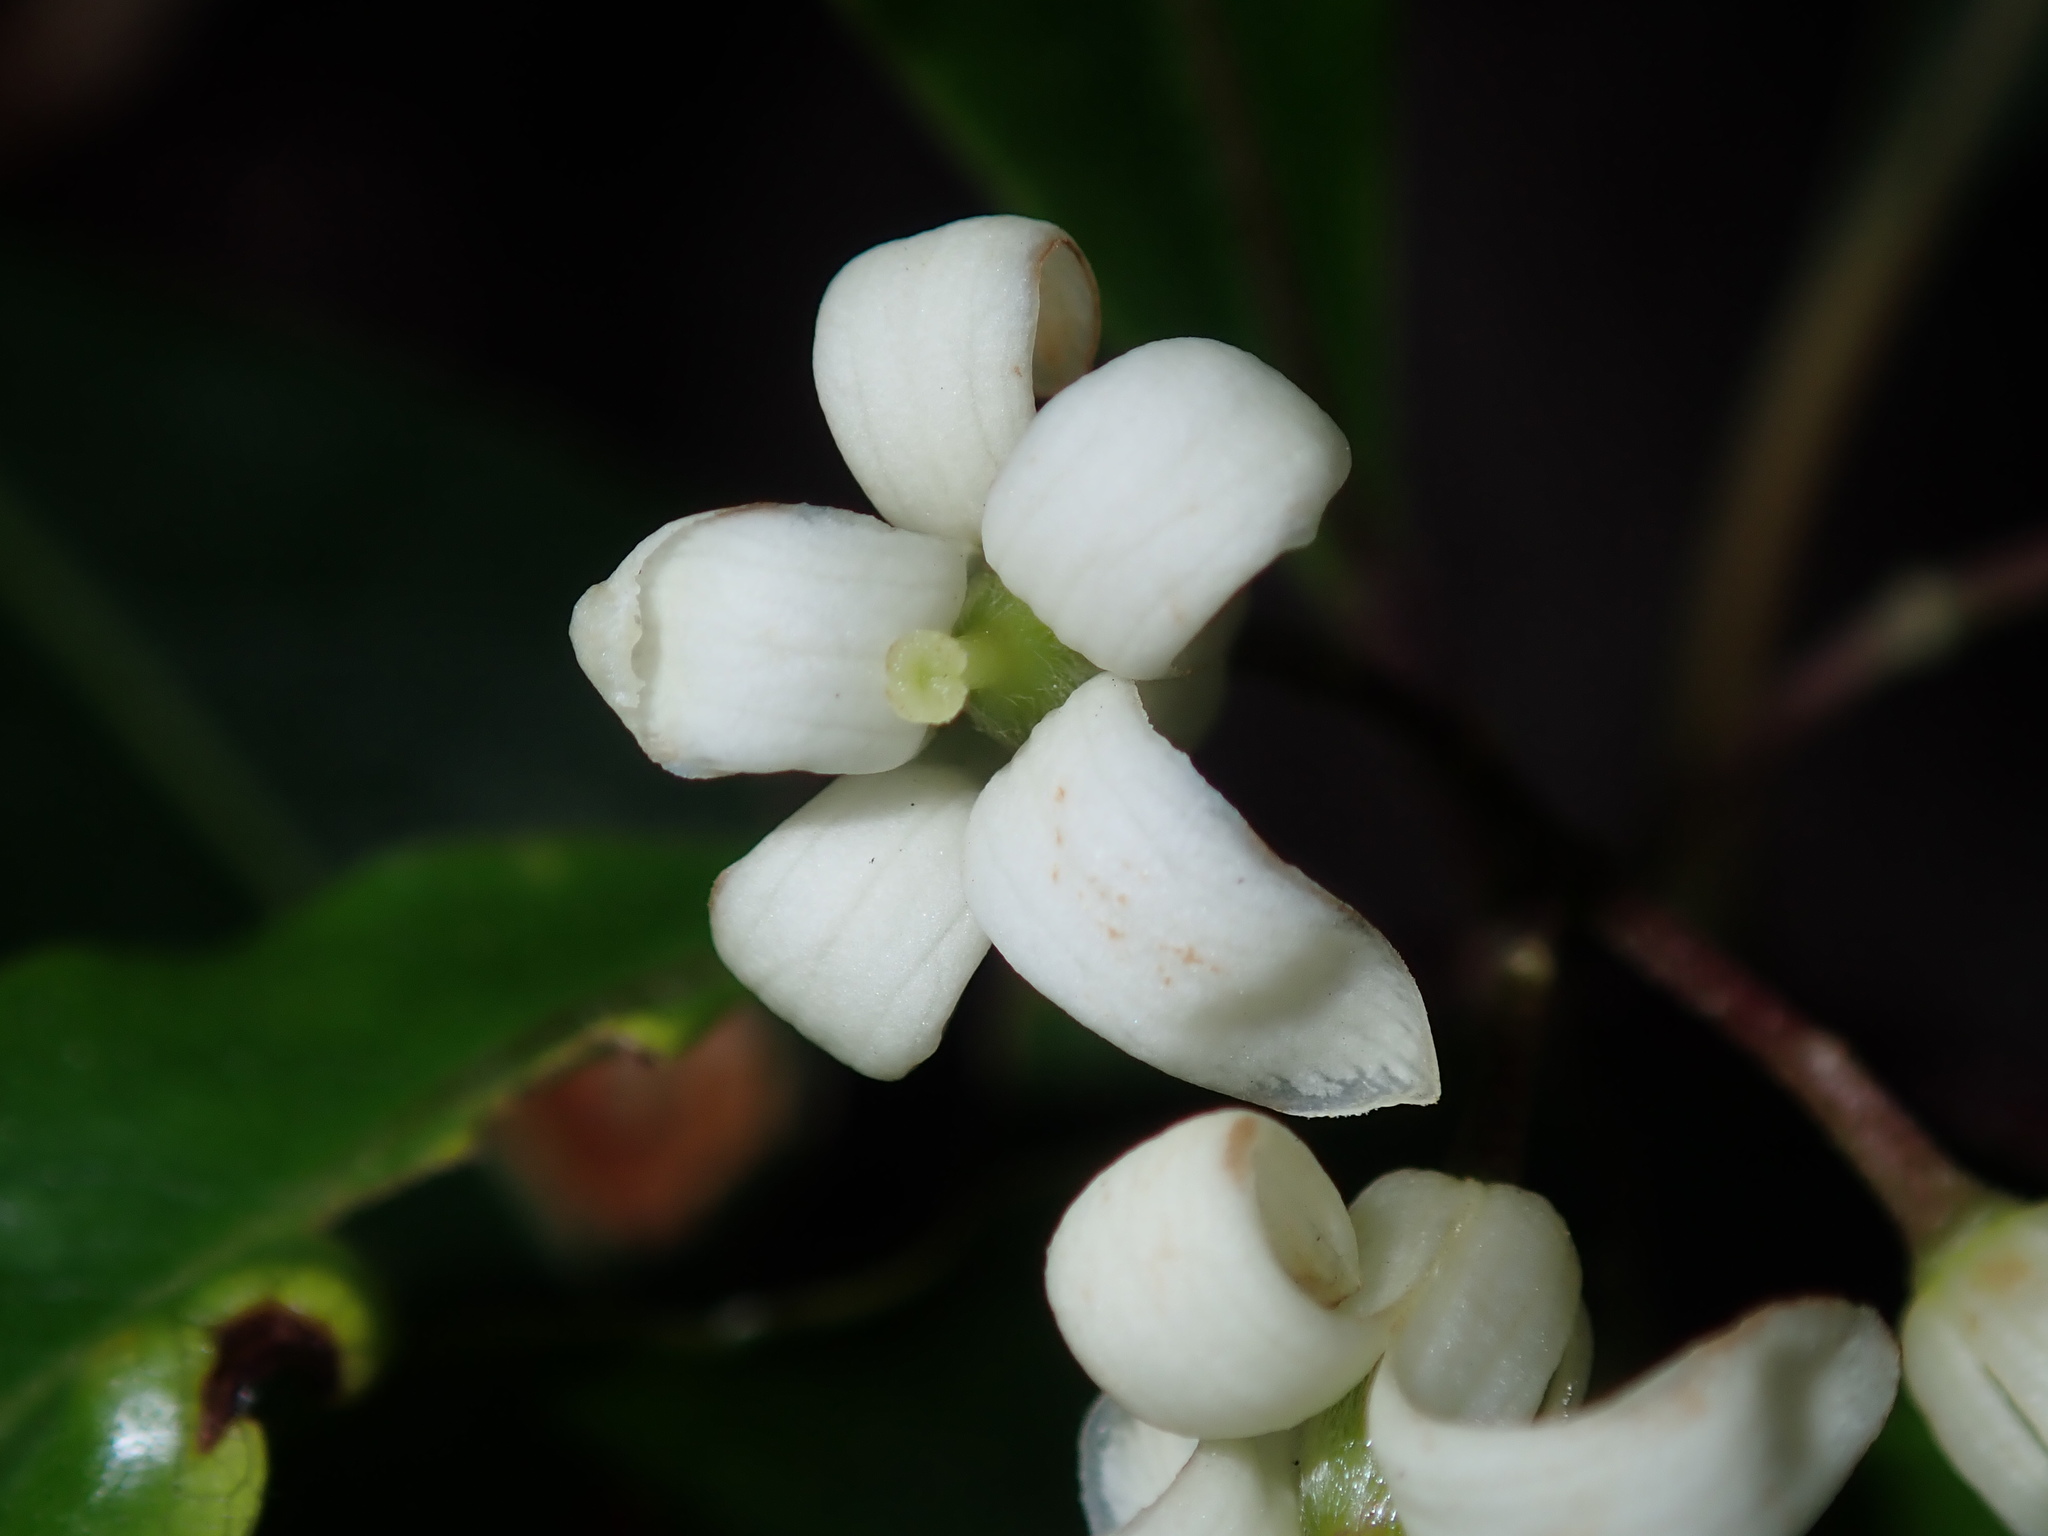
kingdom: Plantae
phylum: Tracheophyta
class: Magnoliopsida
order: Apiales
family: Pittosporaceae
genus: Pittosporum
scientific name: Pittosporum undulatum
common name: Australian cheesewood
